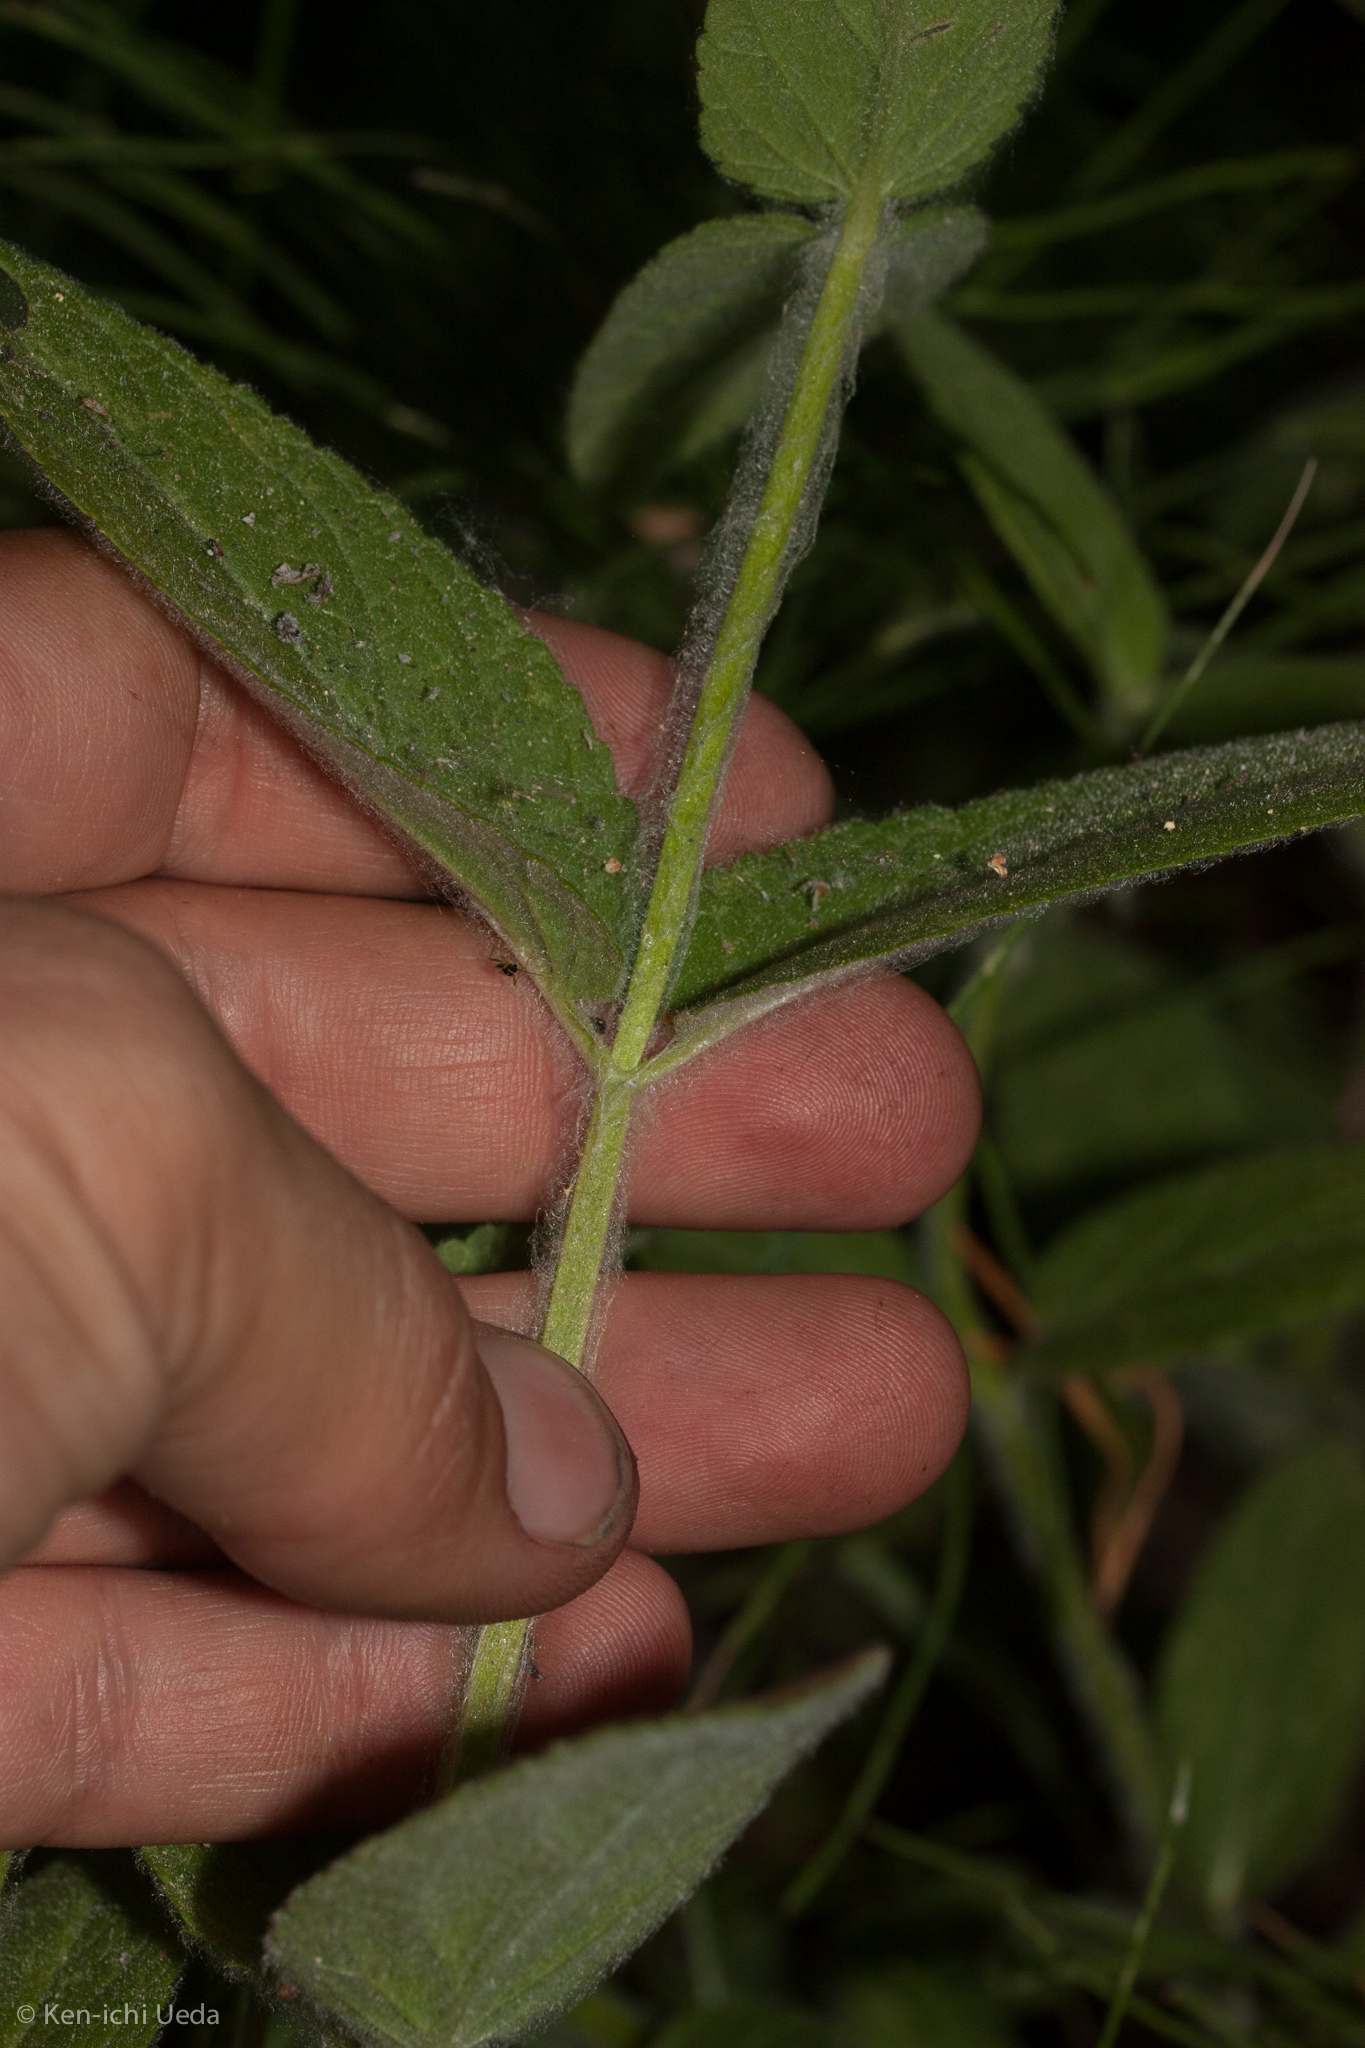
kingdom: Plantae
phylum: Tracheophyta
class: Magnoliopsida
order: Lamiales
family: Lamiaceae
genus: Stachys
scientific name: Stachys albens
